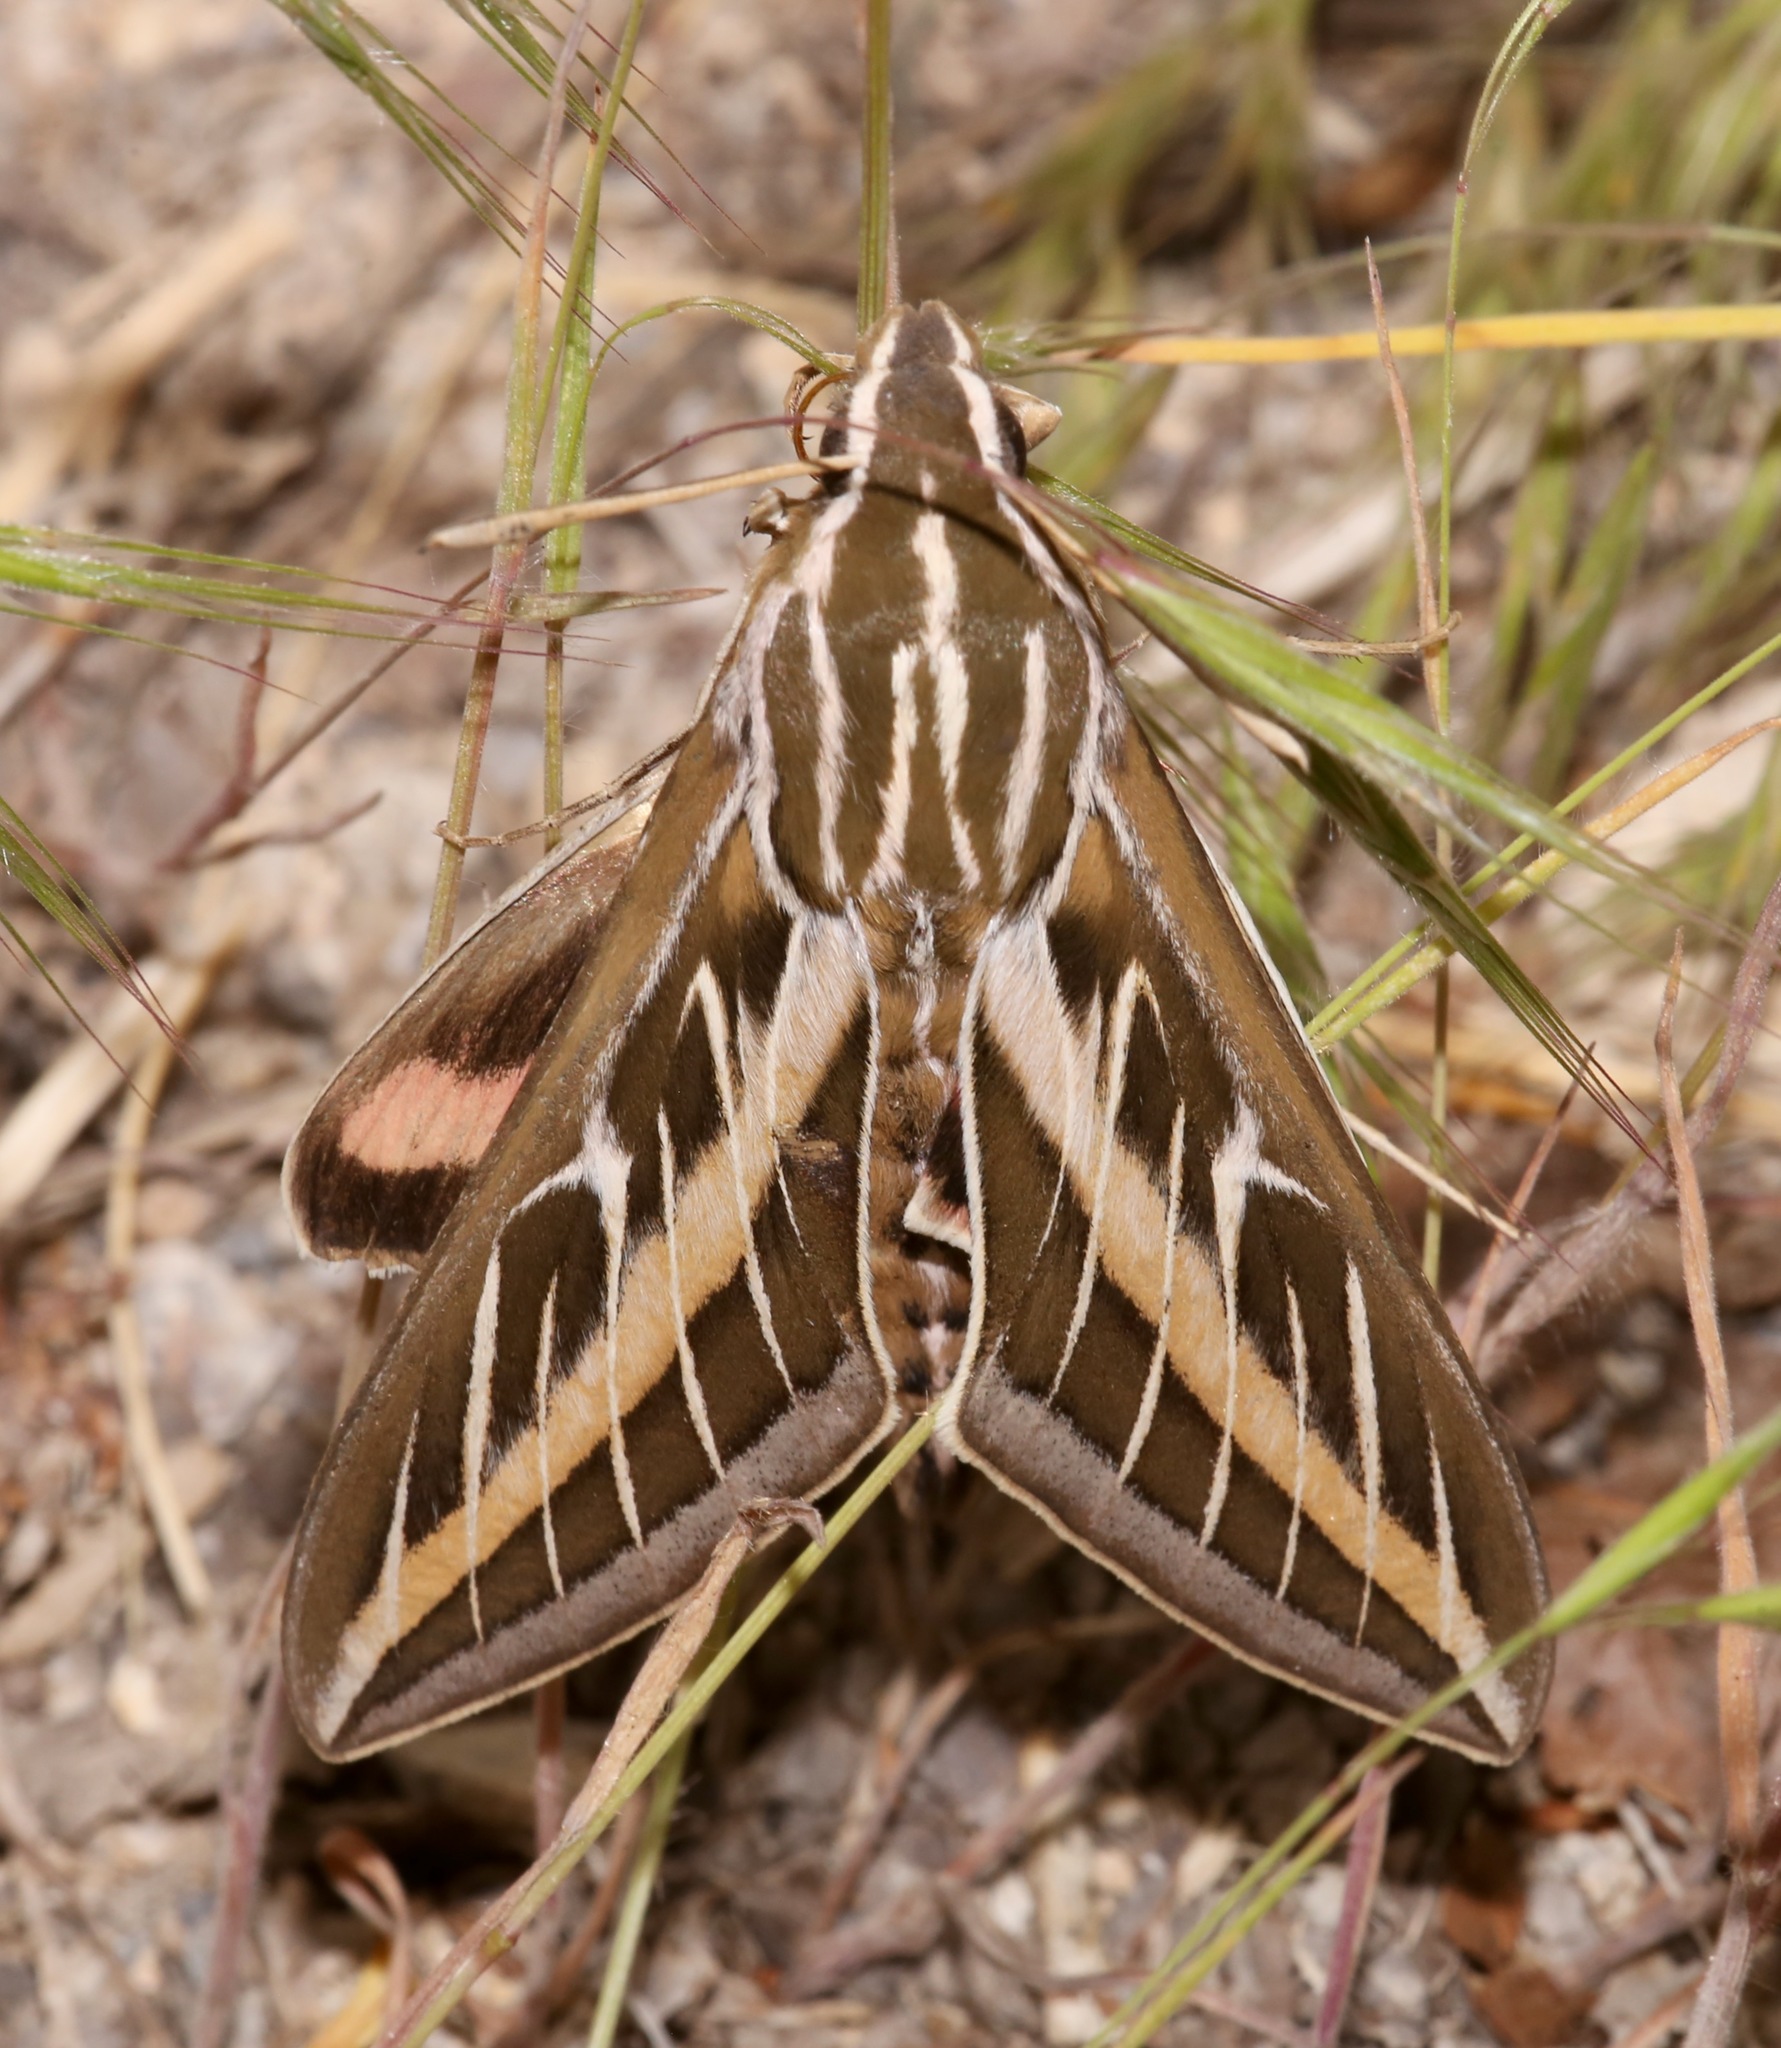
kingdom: Animalia
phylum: Arthropoda
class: Insecta
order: Lepidoptera
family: Sphingidae
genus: Hyles
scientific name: Hyles lineata
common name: White-lined sphinx
